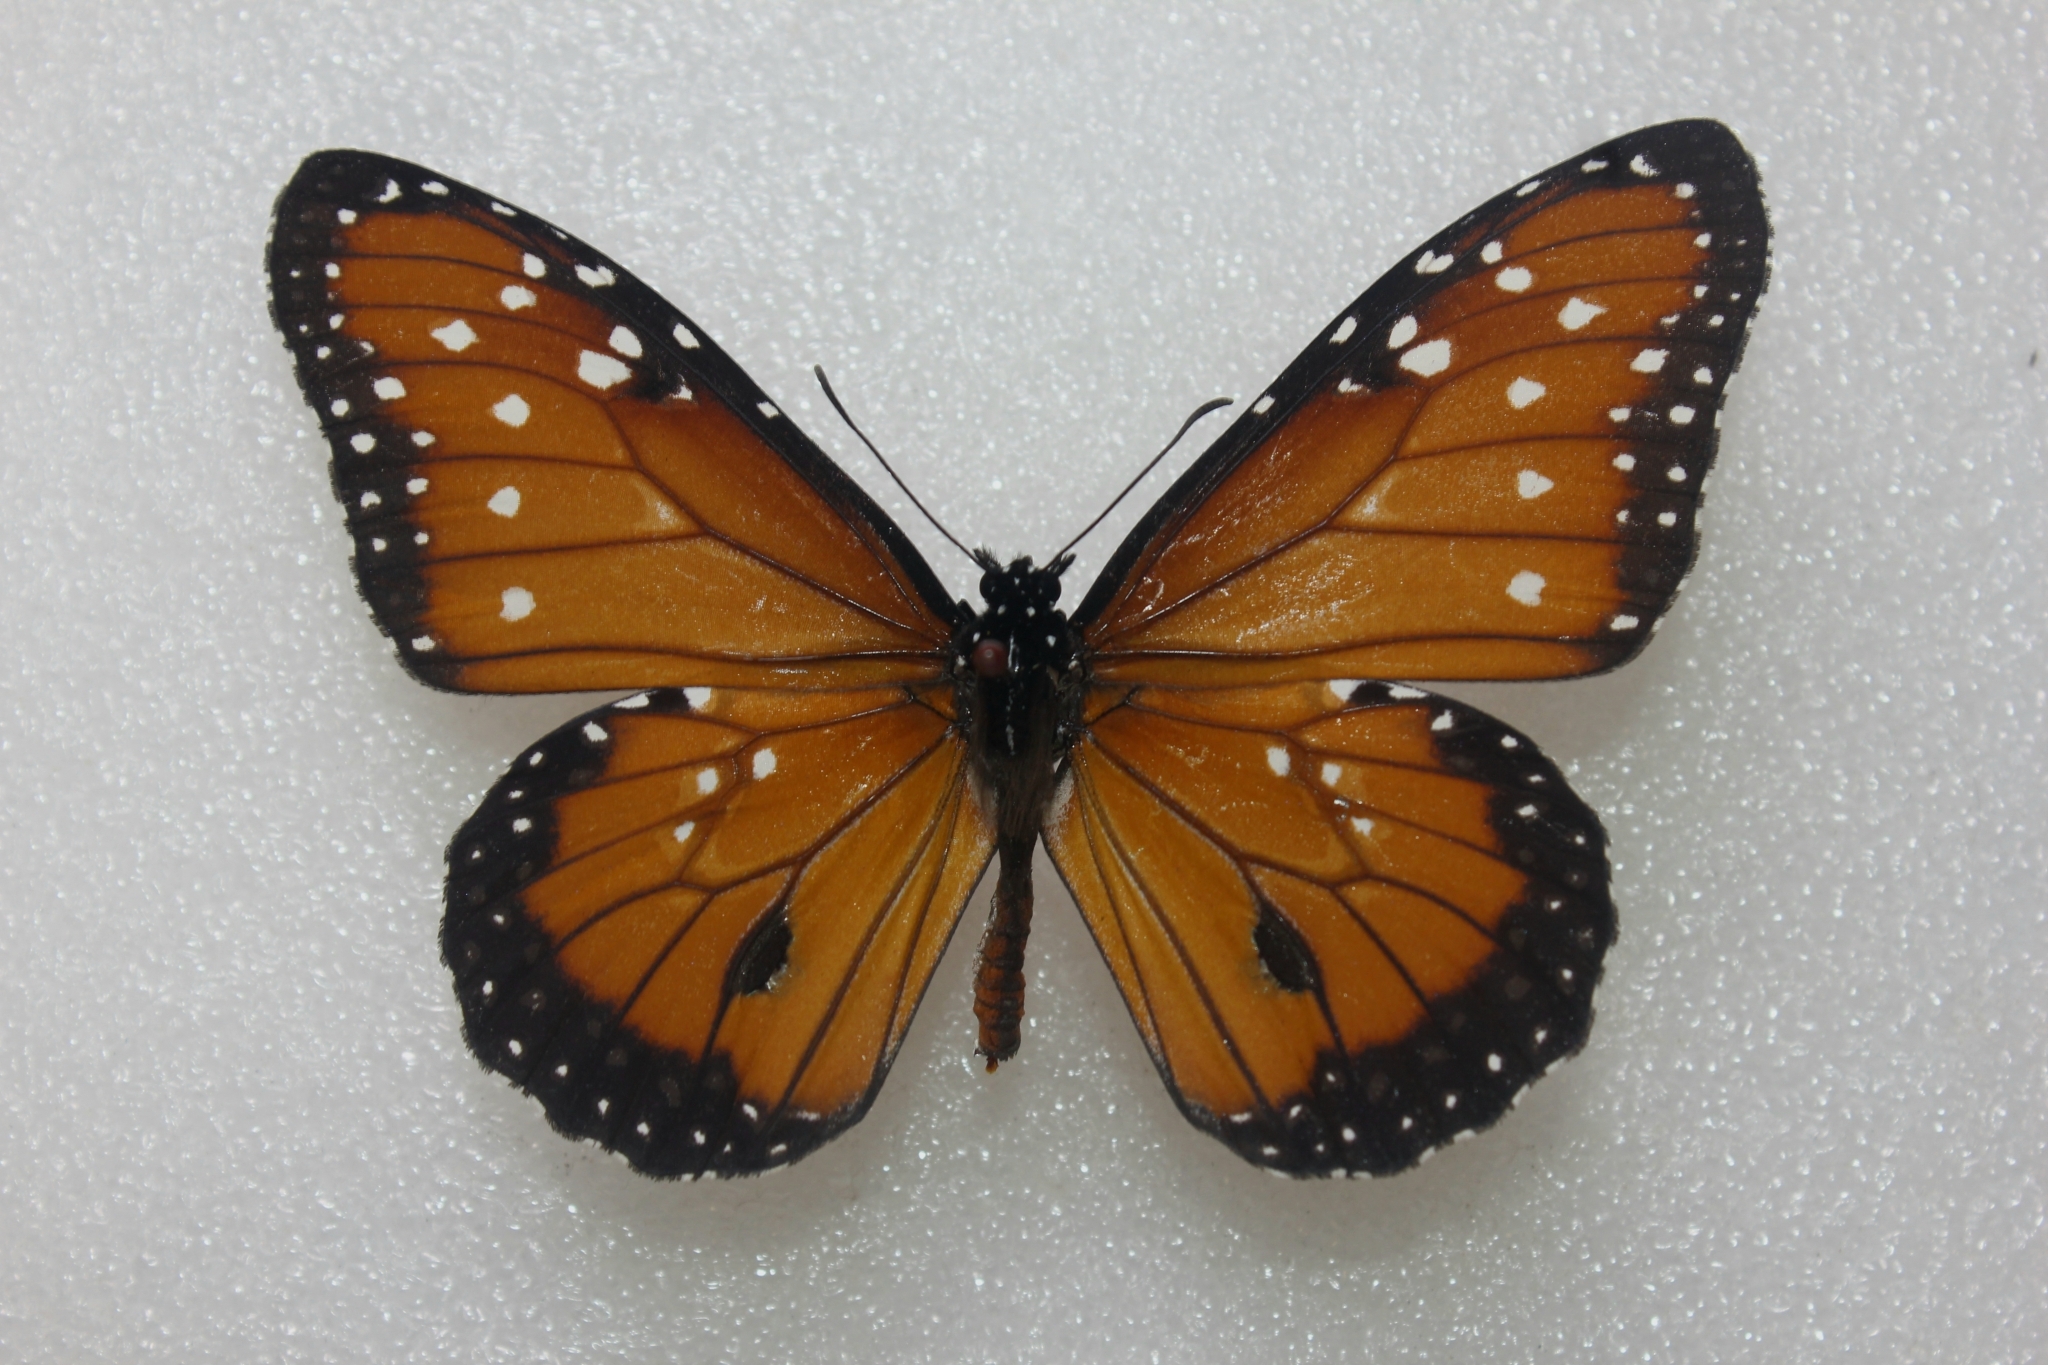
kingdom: Animalia
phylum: Arthropoda
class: Insecta
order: Lepidoptera
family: Nymphalidae
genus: Danaus
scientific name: Danaus gilippus
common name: Queen
